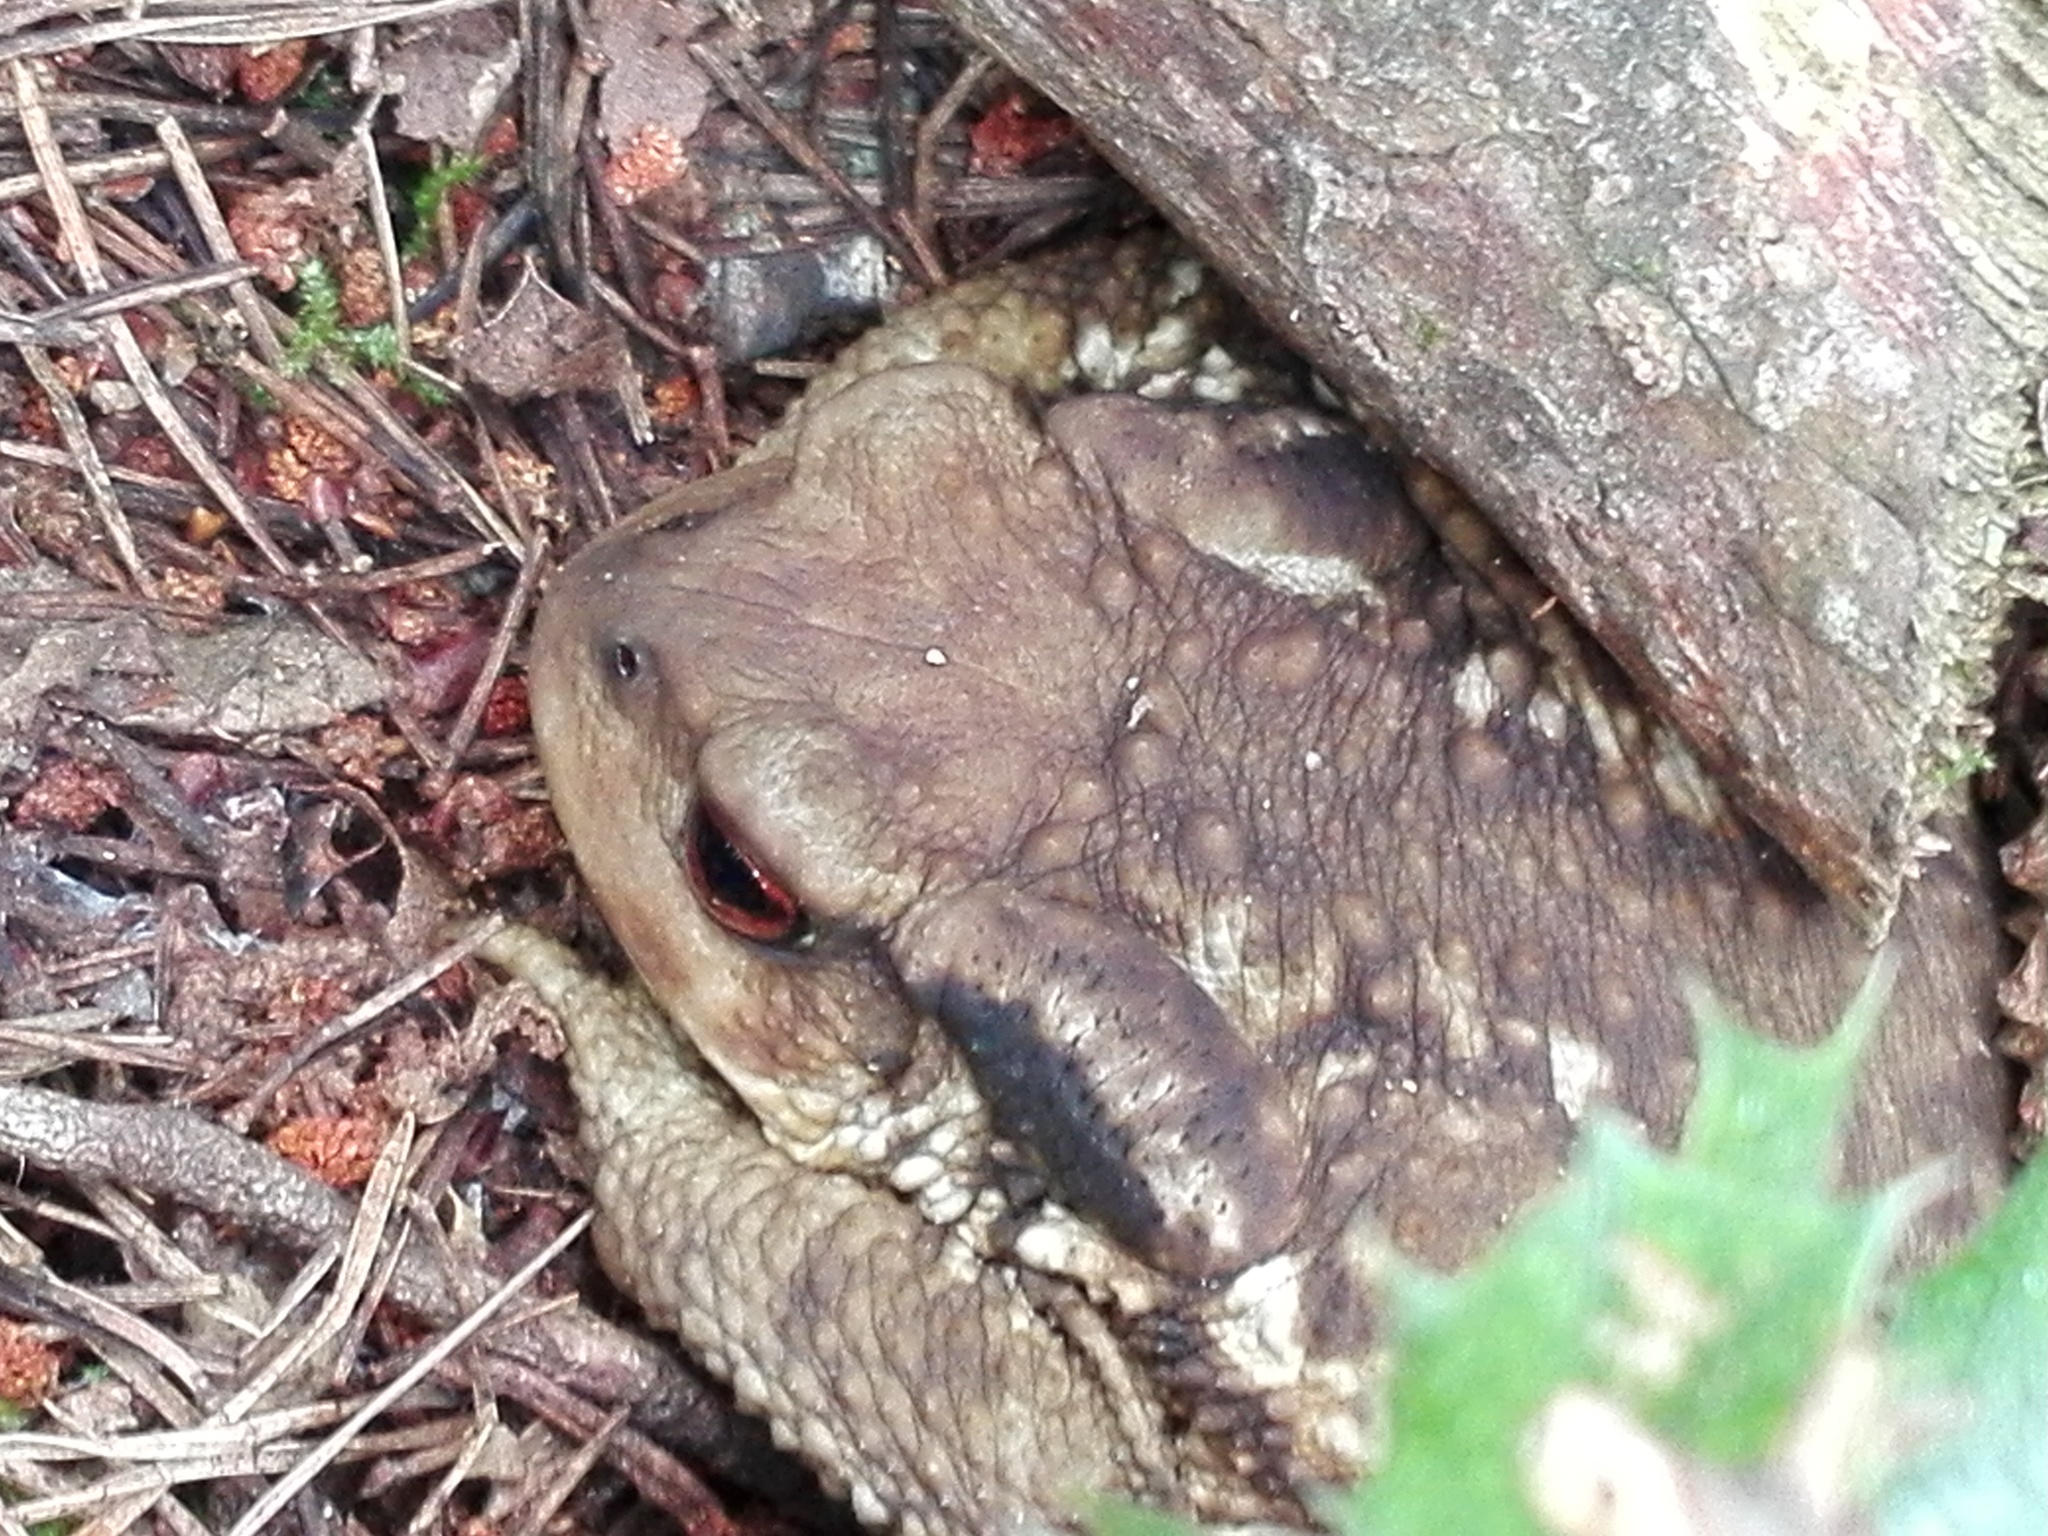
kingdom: Animalia
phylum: Chordata
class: Amphibia
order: Anura
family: Bufonidae
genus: Bufo
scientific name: Bufo spinosus
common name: Western common toad
